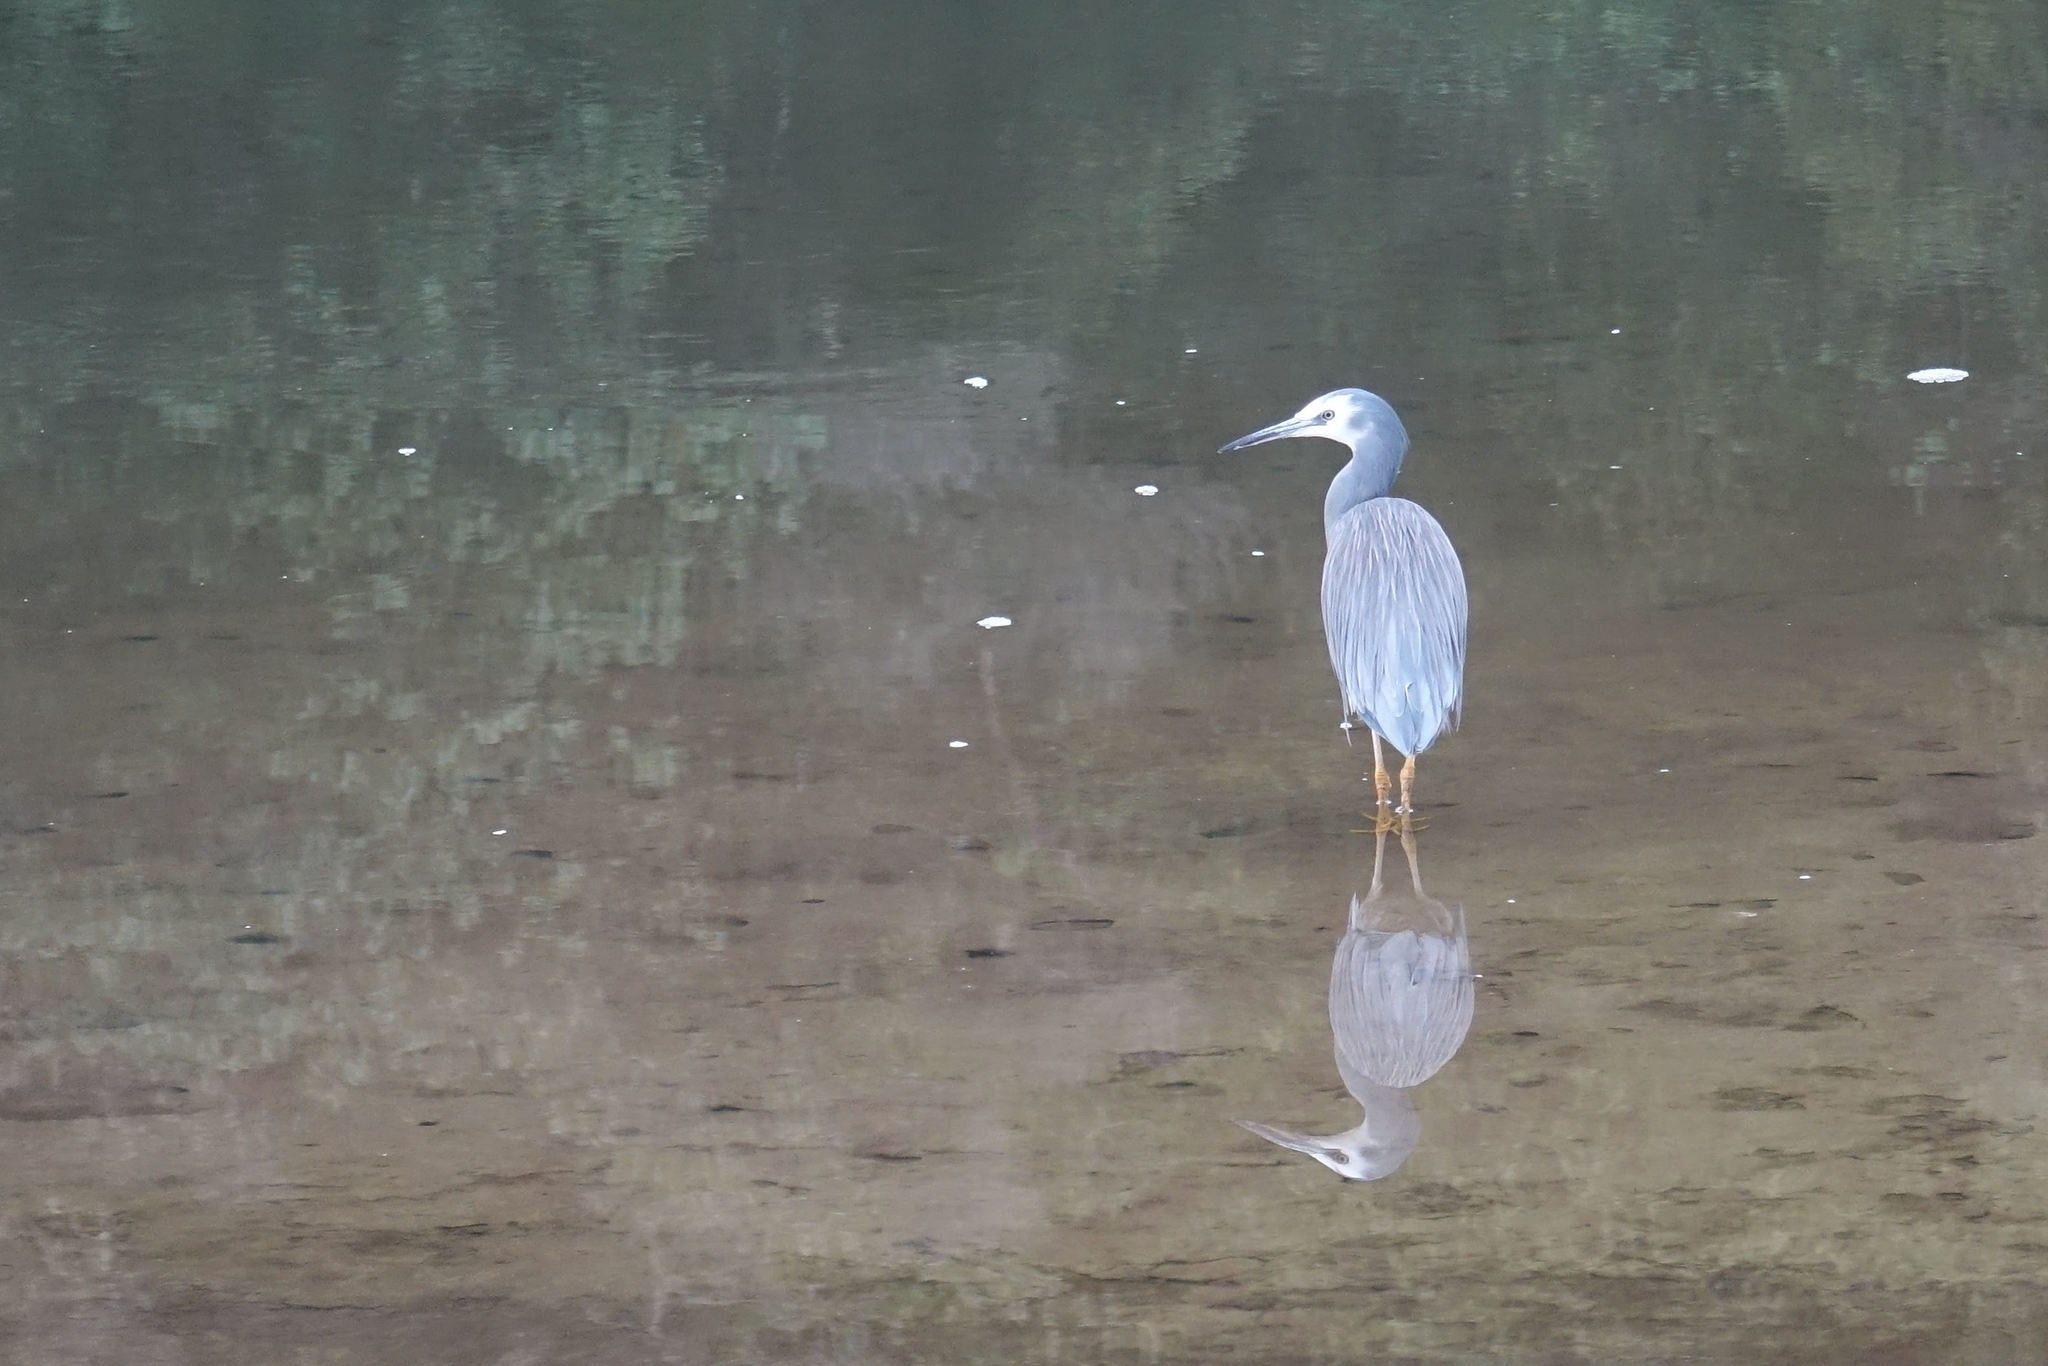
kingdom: Animalia
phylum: Chordata
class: Aves
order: Pelecaniformes
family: Ardeidae
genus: Egretta
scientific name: Egretta novaehollandiae
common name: White-faced heron
